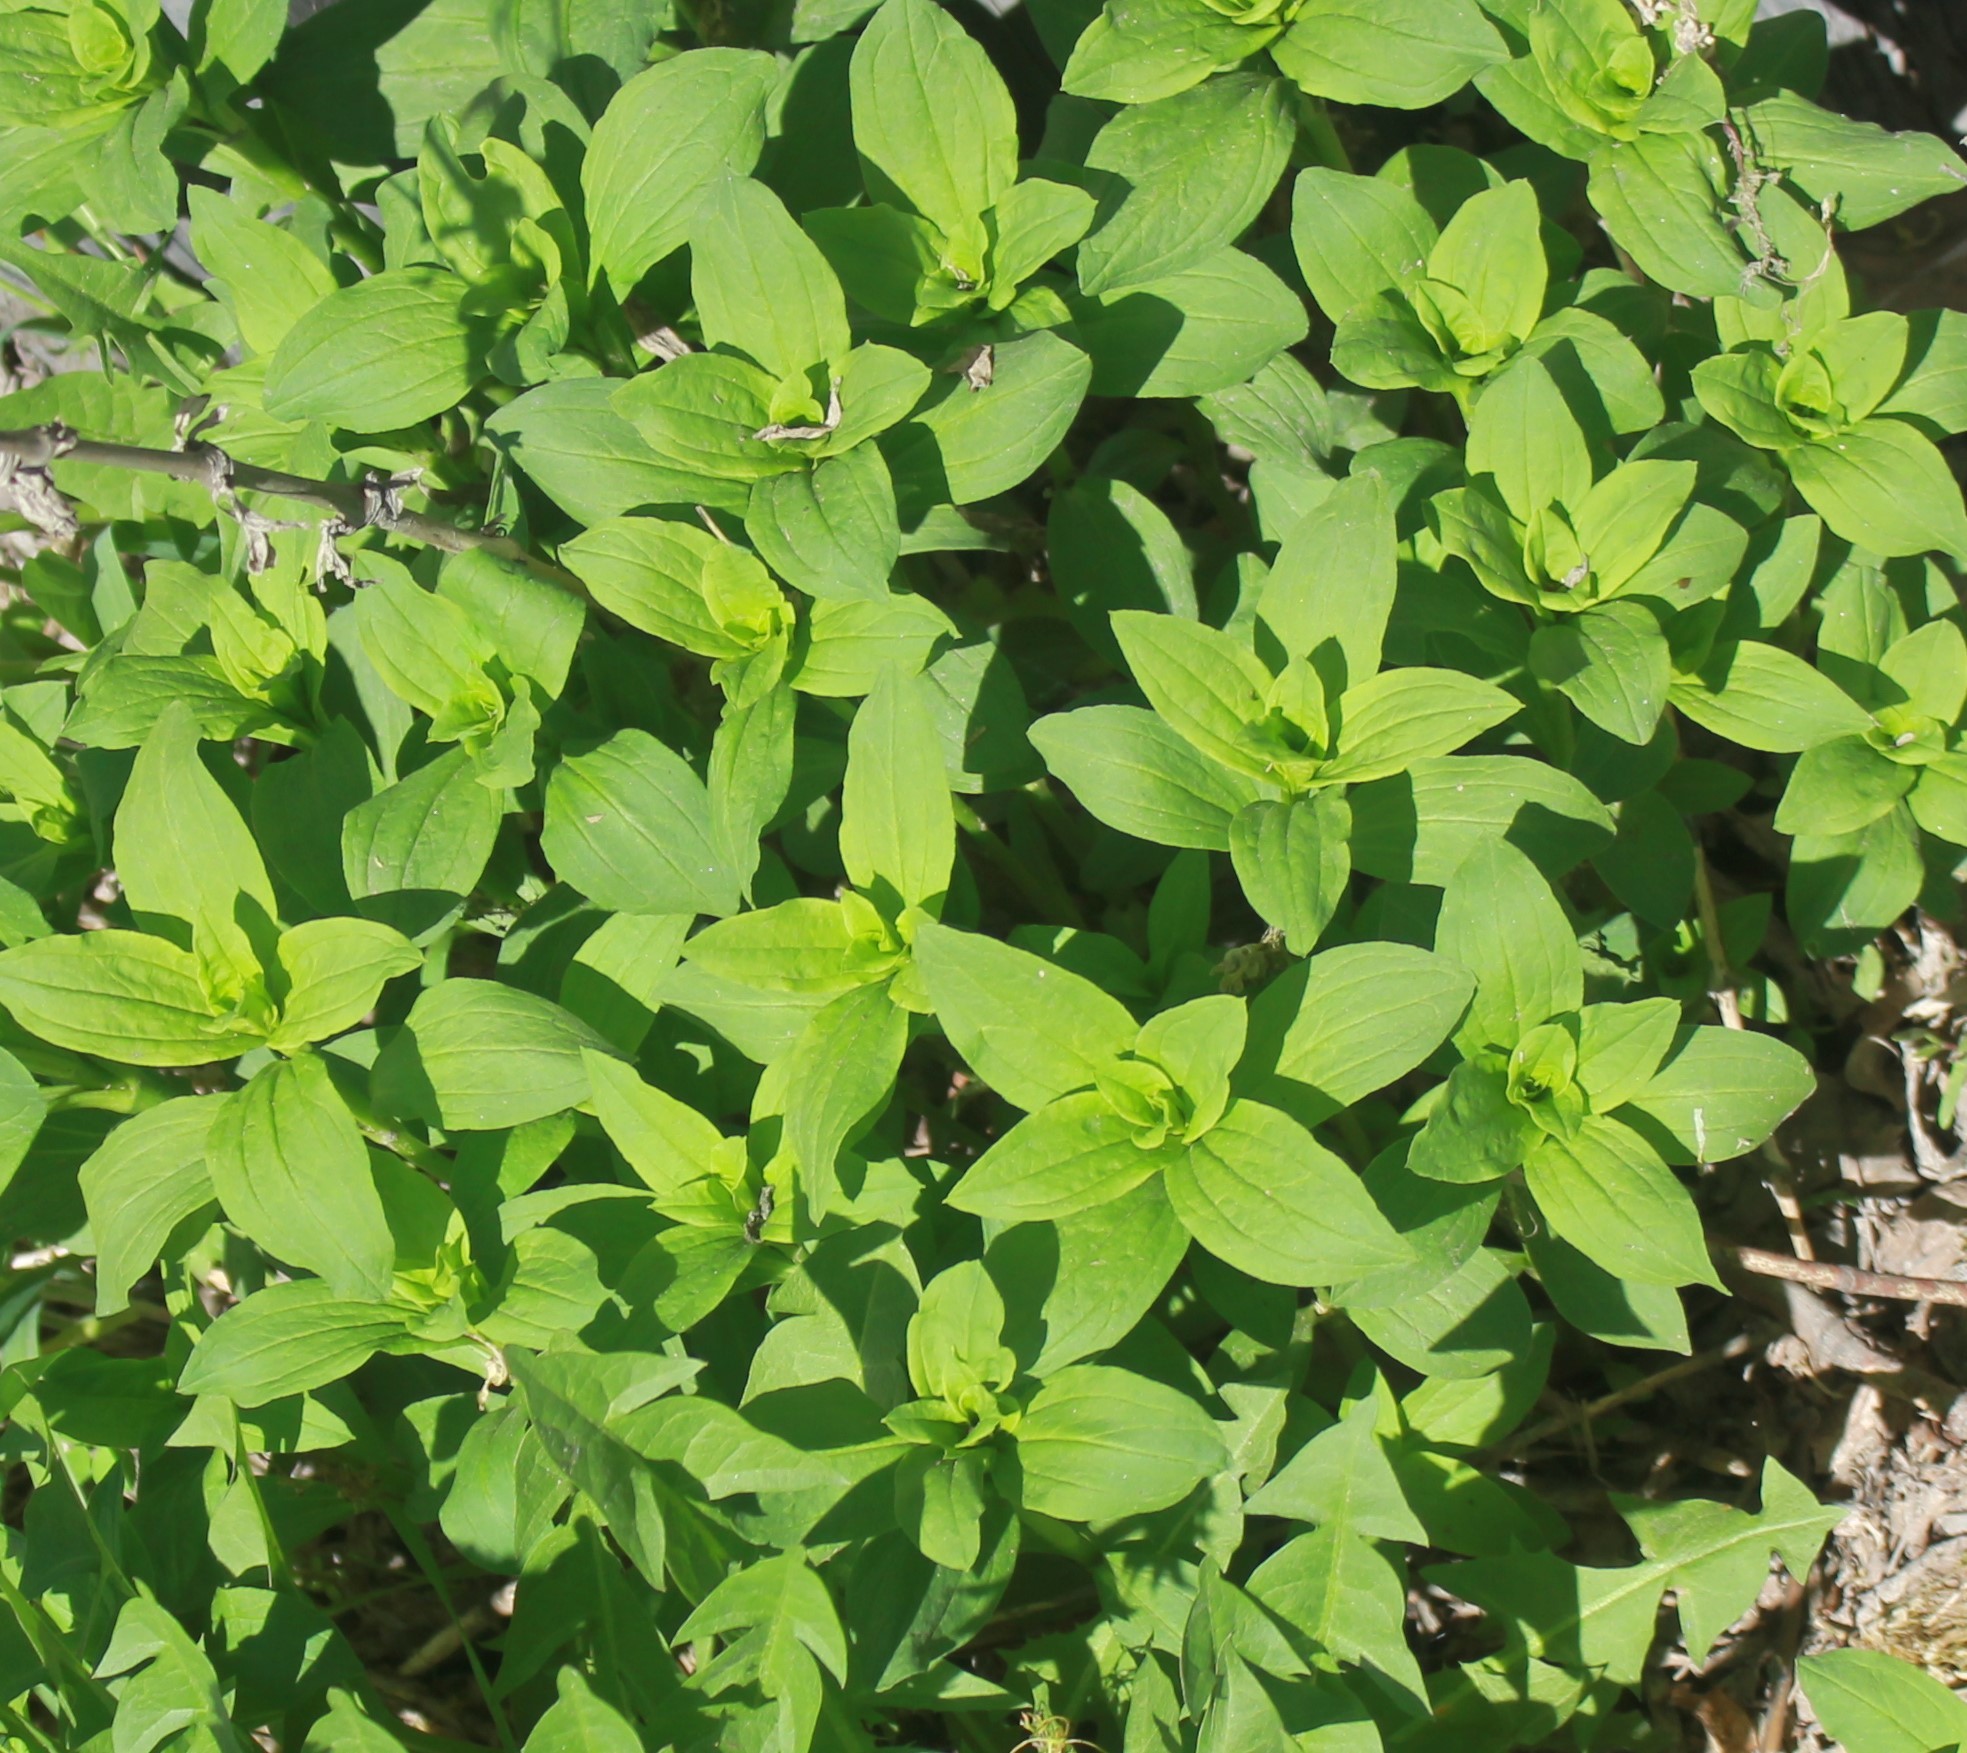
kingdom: Plantae
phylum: Tracheophyta
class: Magnoliopsida
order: Caryophyllales
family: Caryophyllaceae
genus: Saponaria
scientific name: Saponaria officinalis
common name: Soapwort
